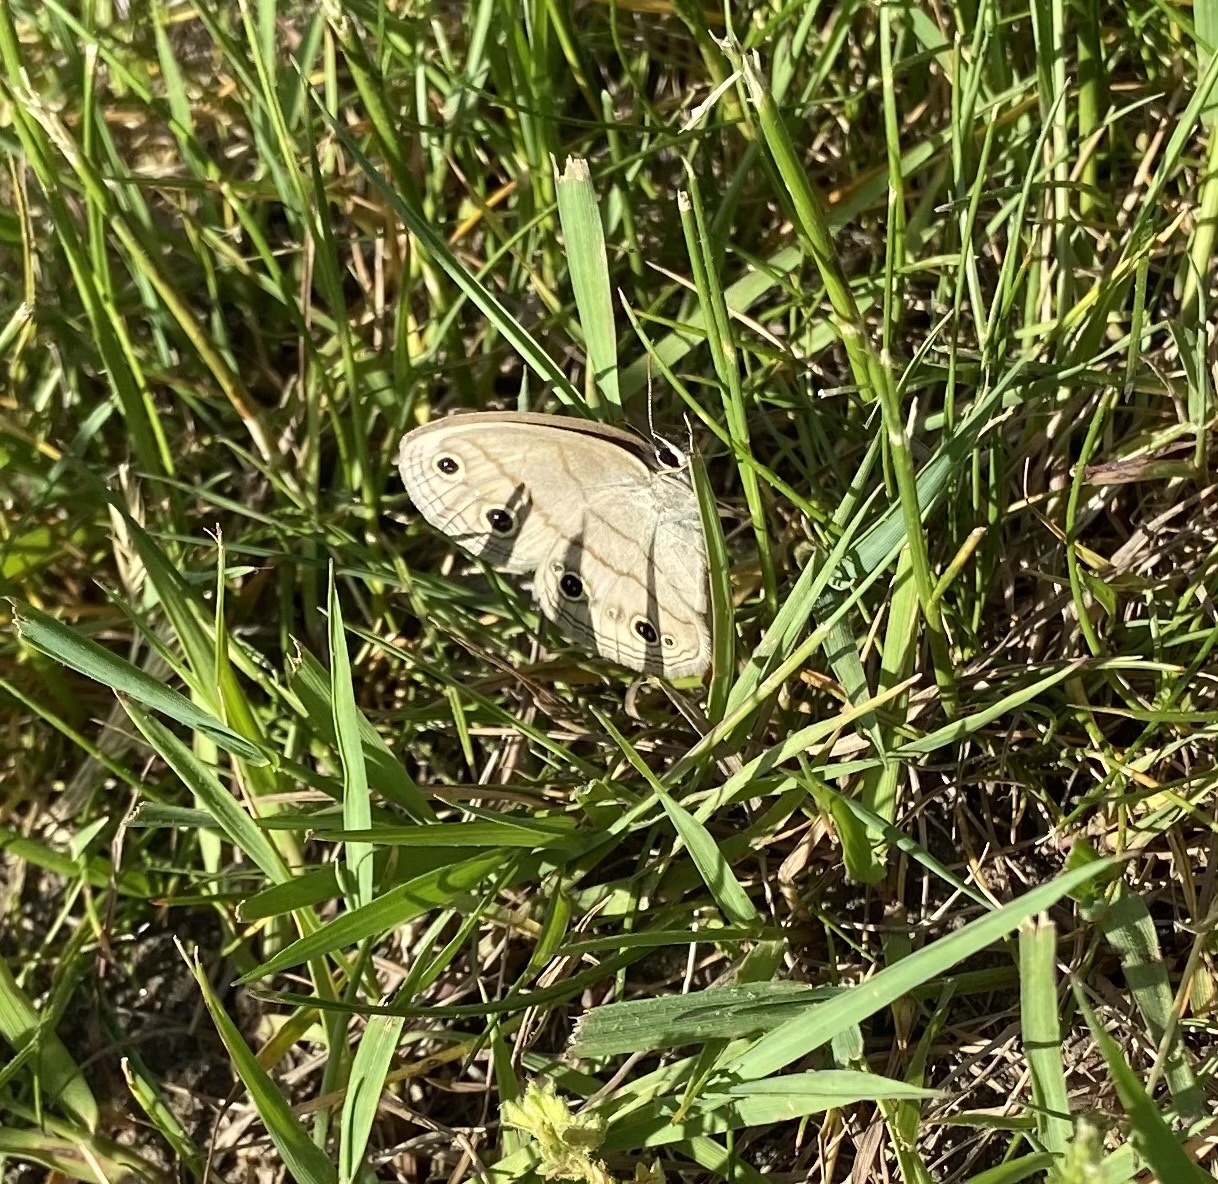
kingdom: Animalia
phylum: Arthropoda
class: Insecta
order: Lepidoptera
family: Nymphalidae
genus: Euptychia
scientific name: Euptychia cymela
